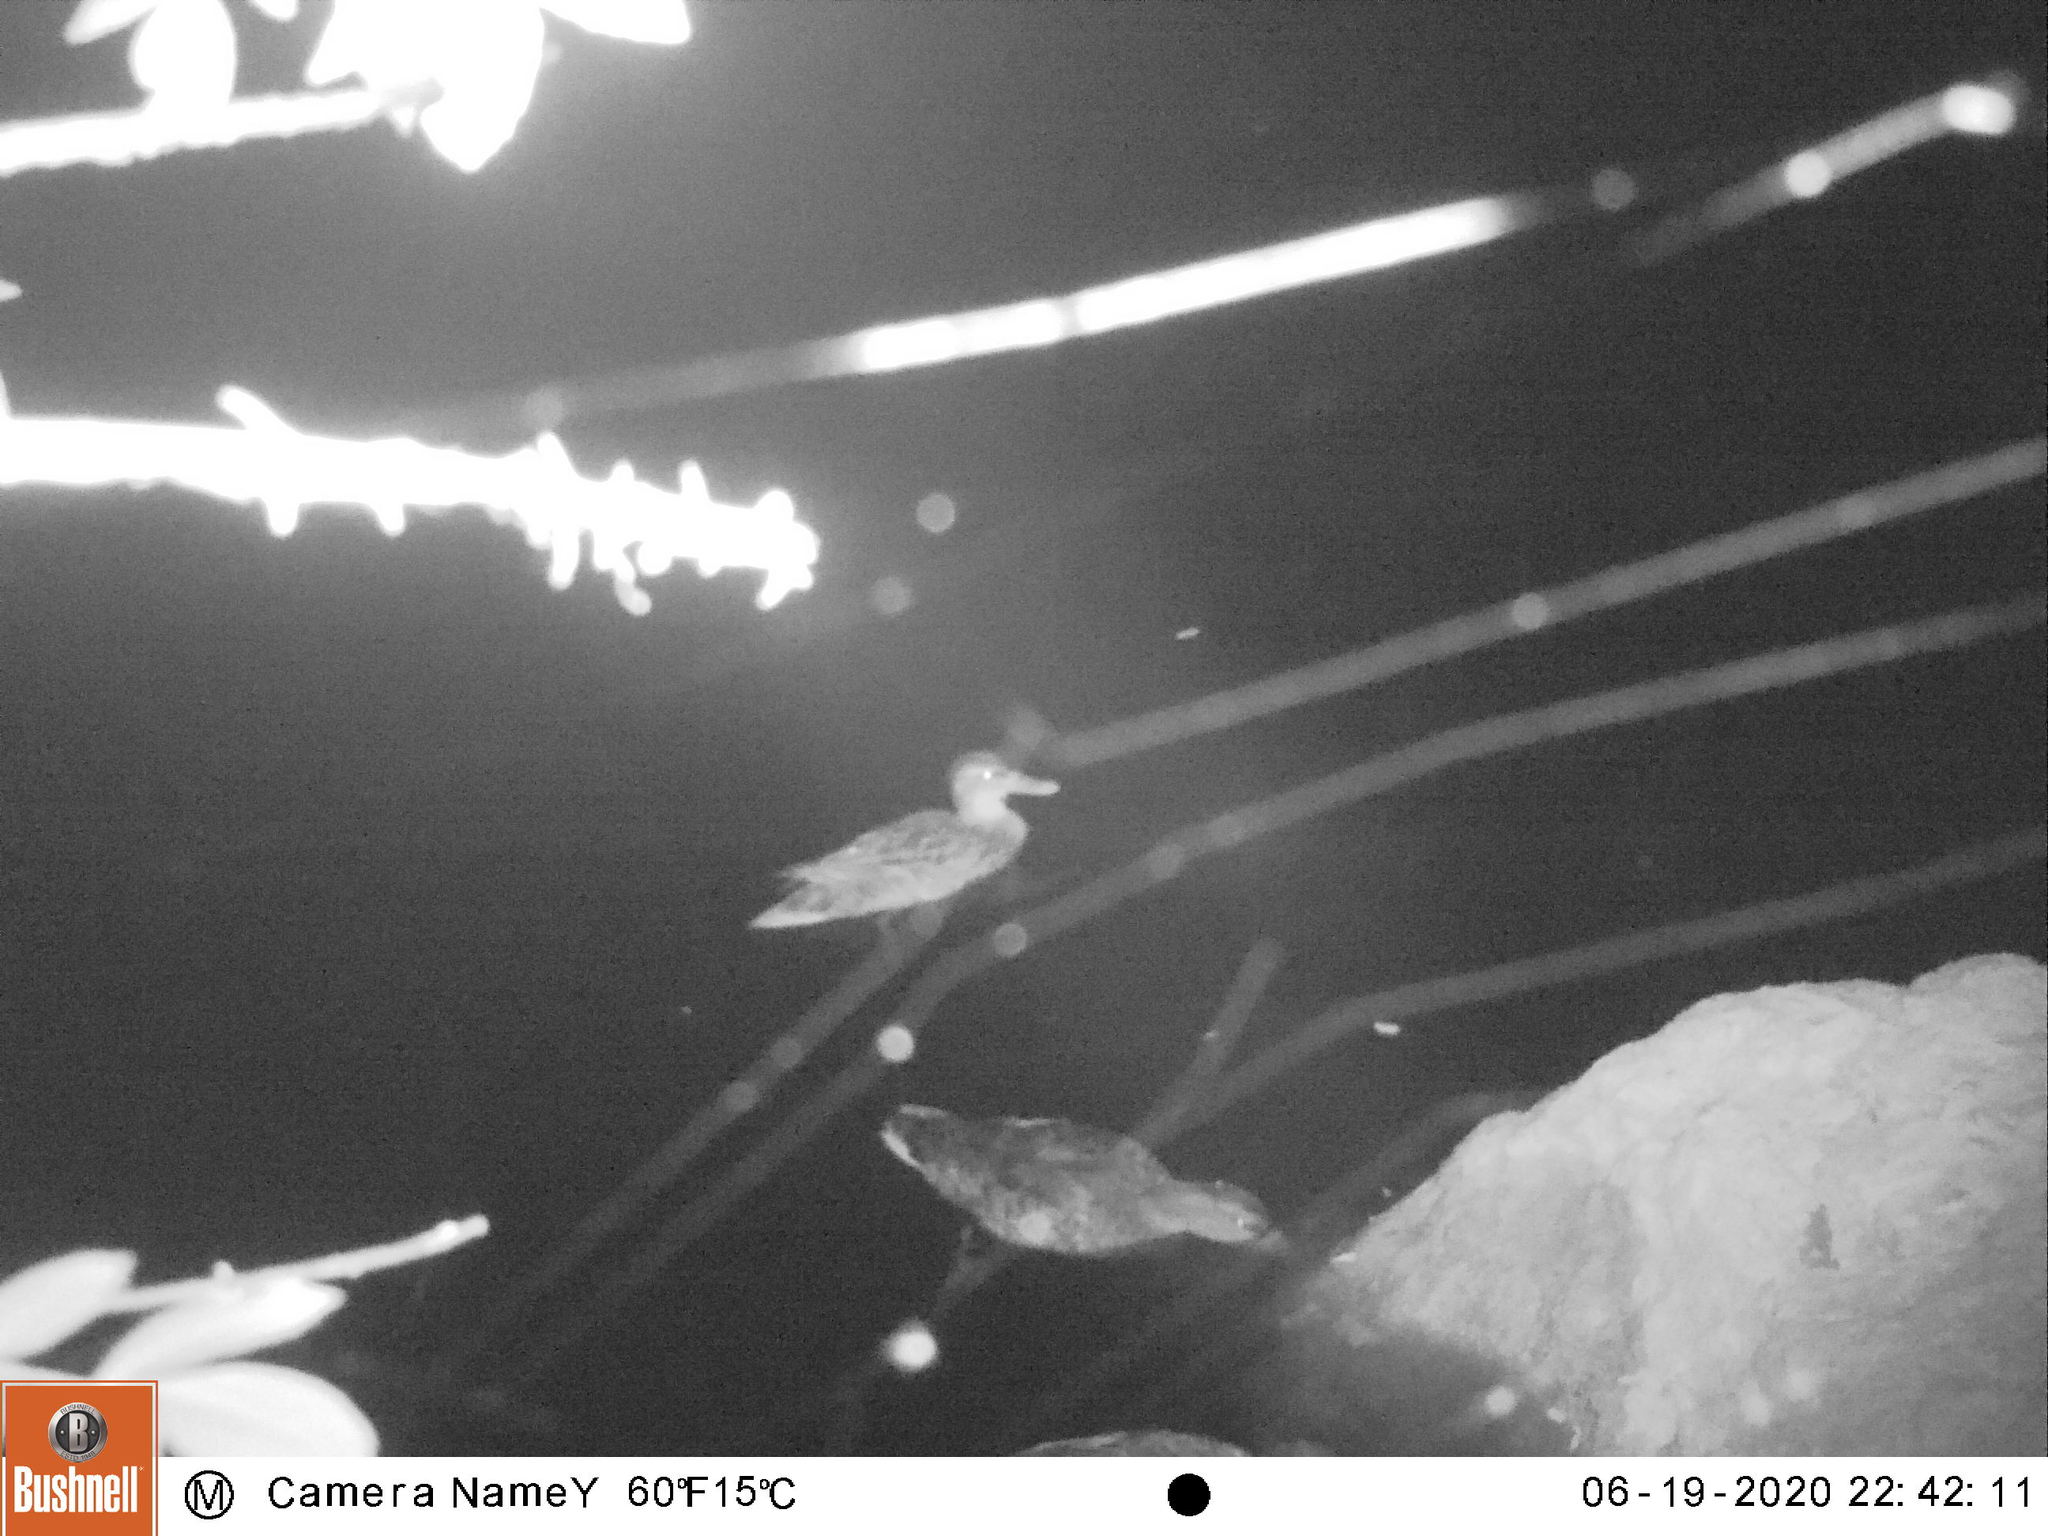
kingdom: Animalia
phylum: Chordata
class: Aves
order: Anseriformes
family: Anatidae
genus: Anas
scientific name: Anas platyrhynchos
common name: Mallard
